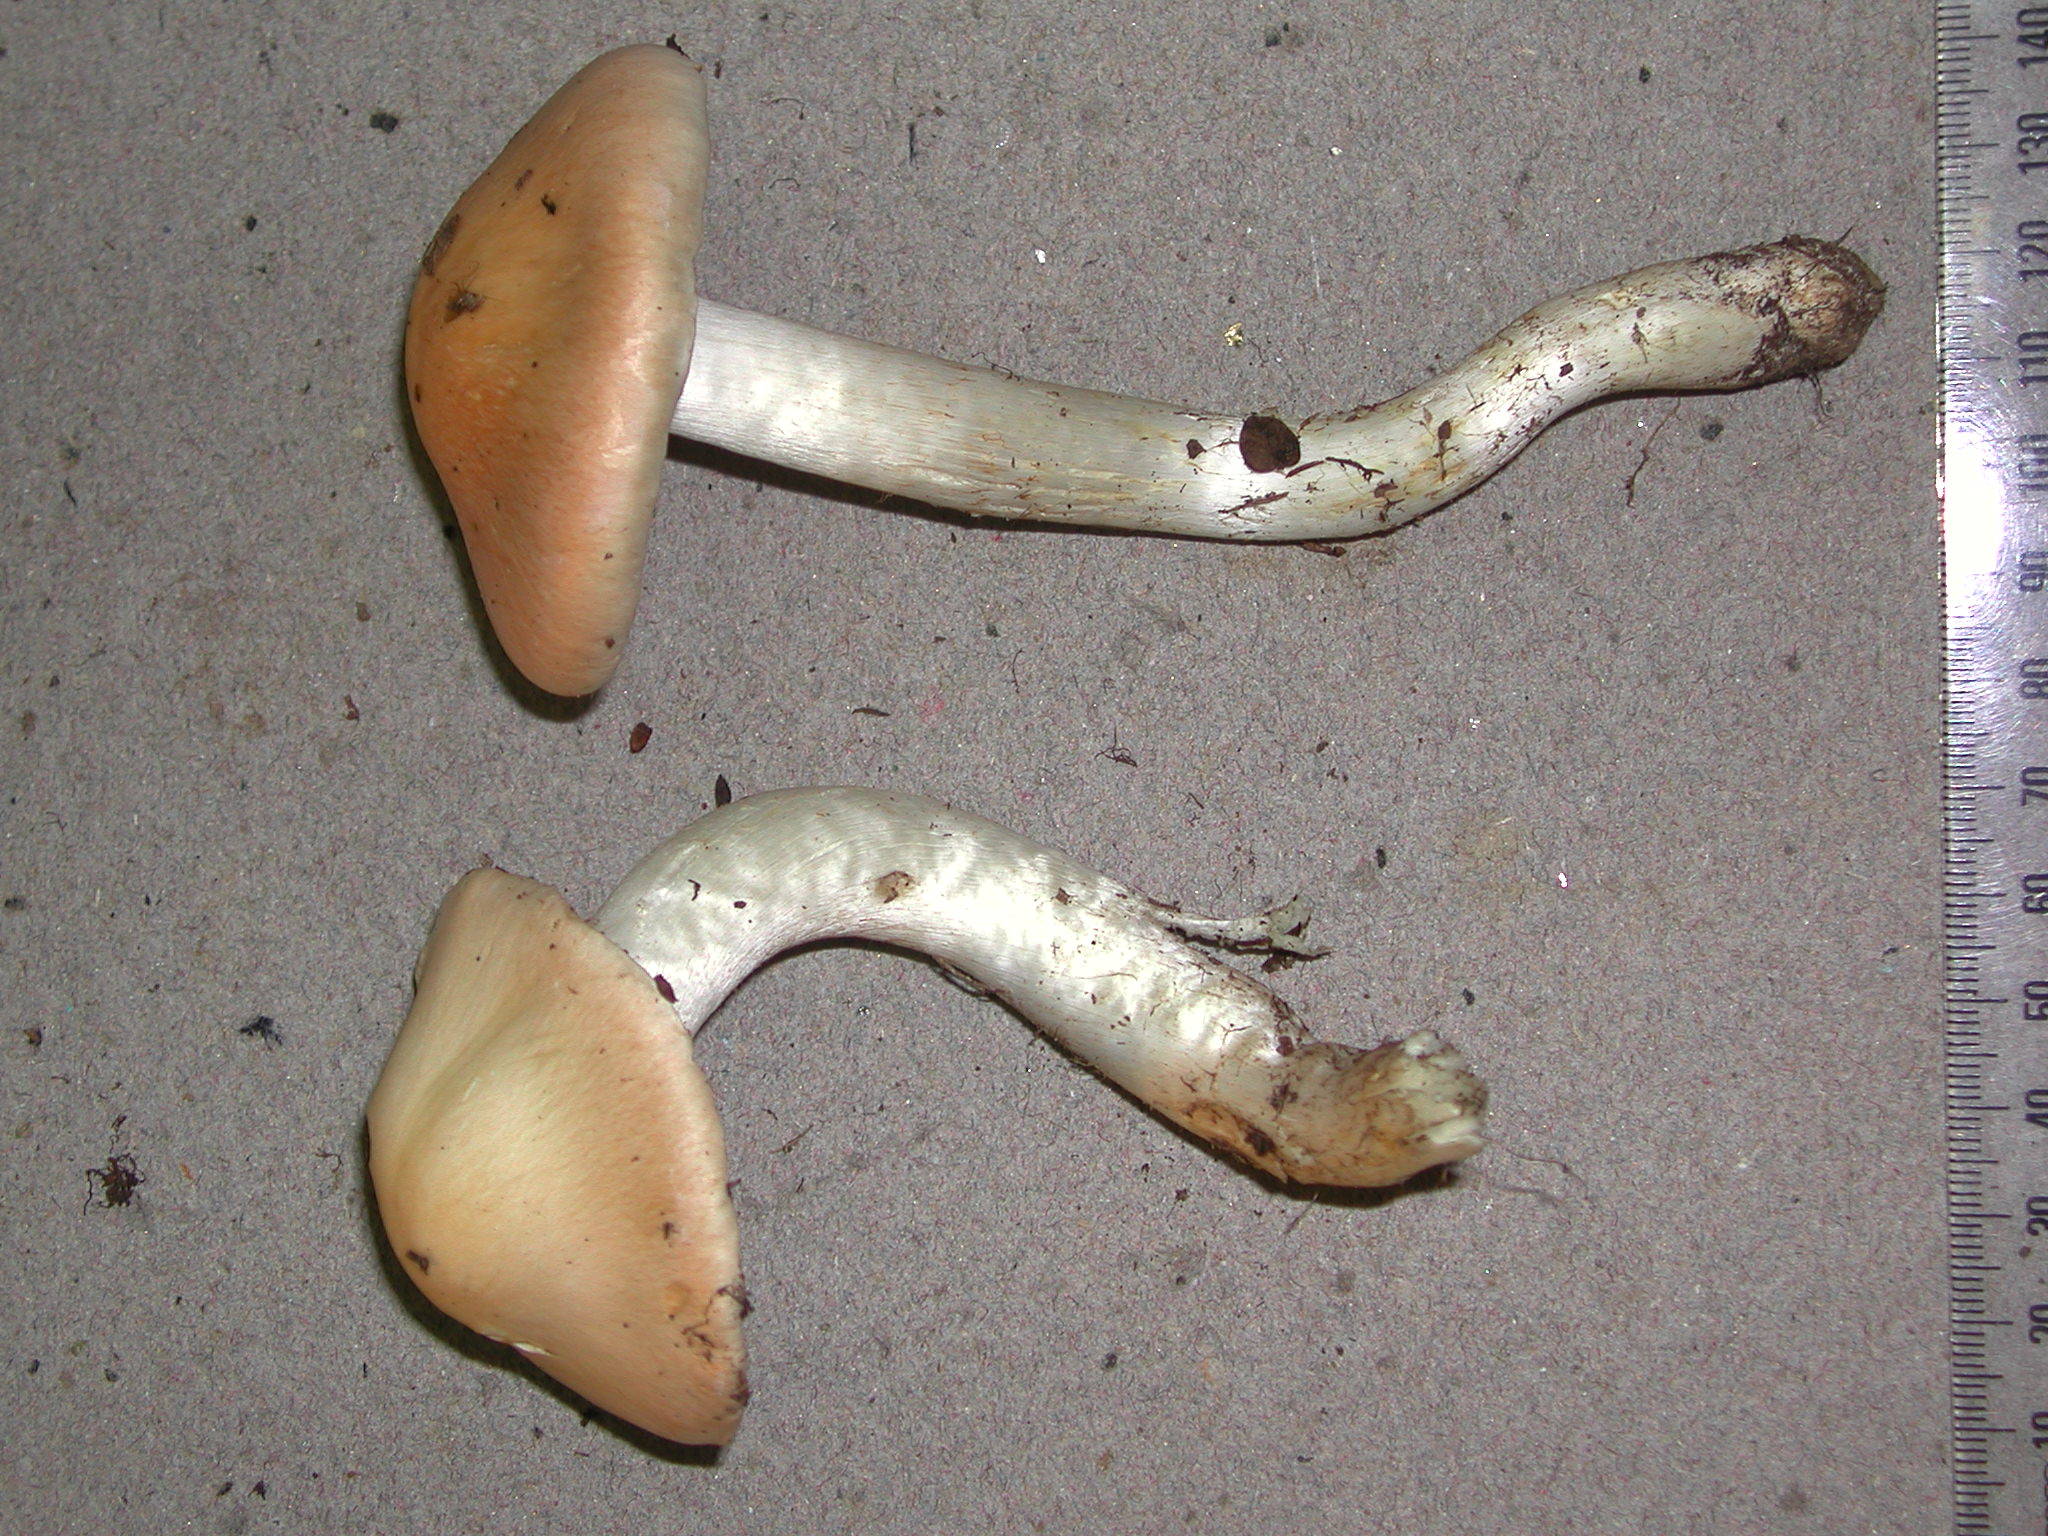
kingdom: Fungi
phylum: Basidiomycota
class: Agaricomycetes
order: Agaricales
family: Cortinariaceae
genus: Thaxterogaster
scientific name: Thaxterogaster persicanus
